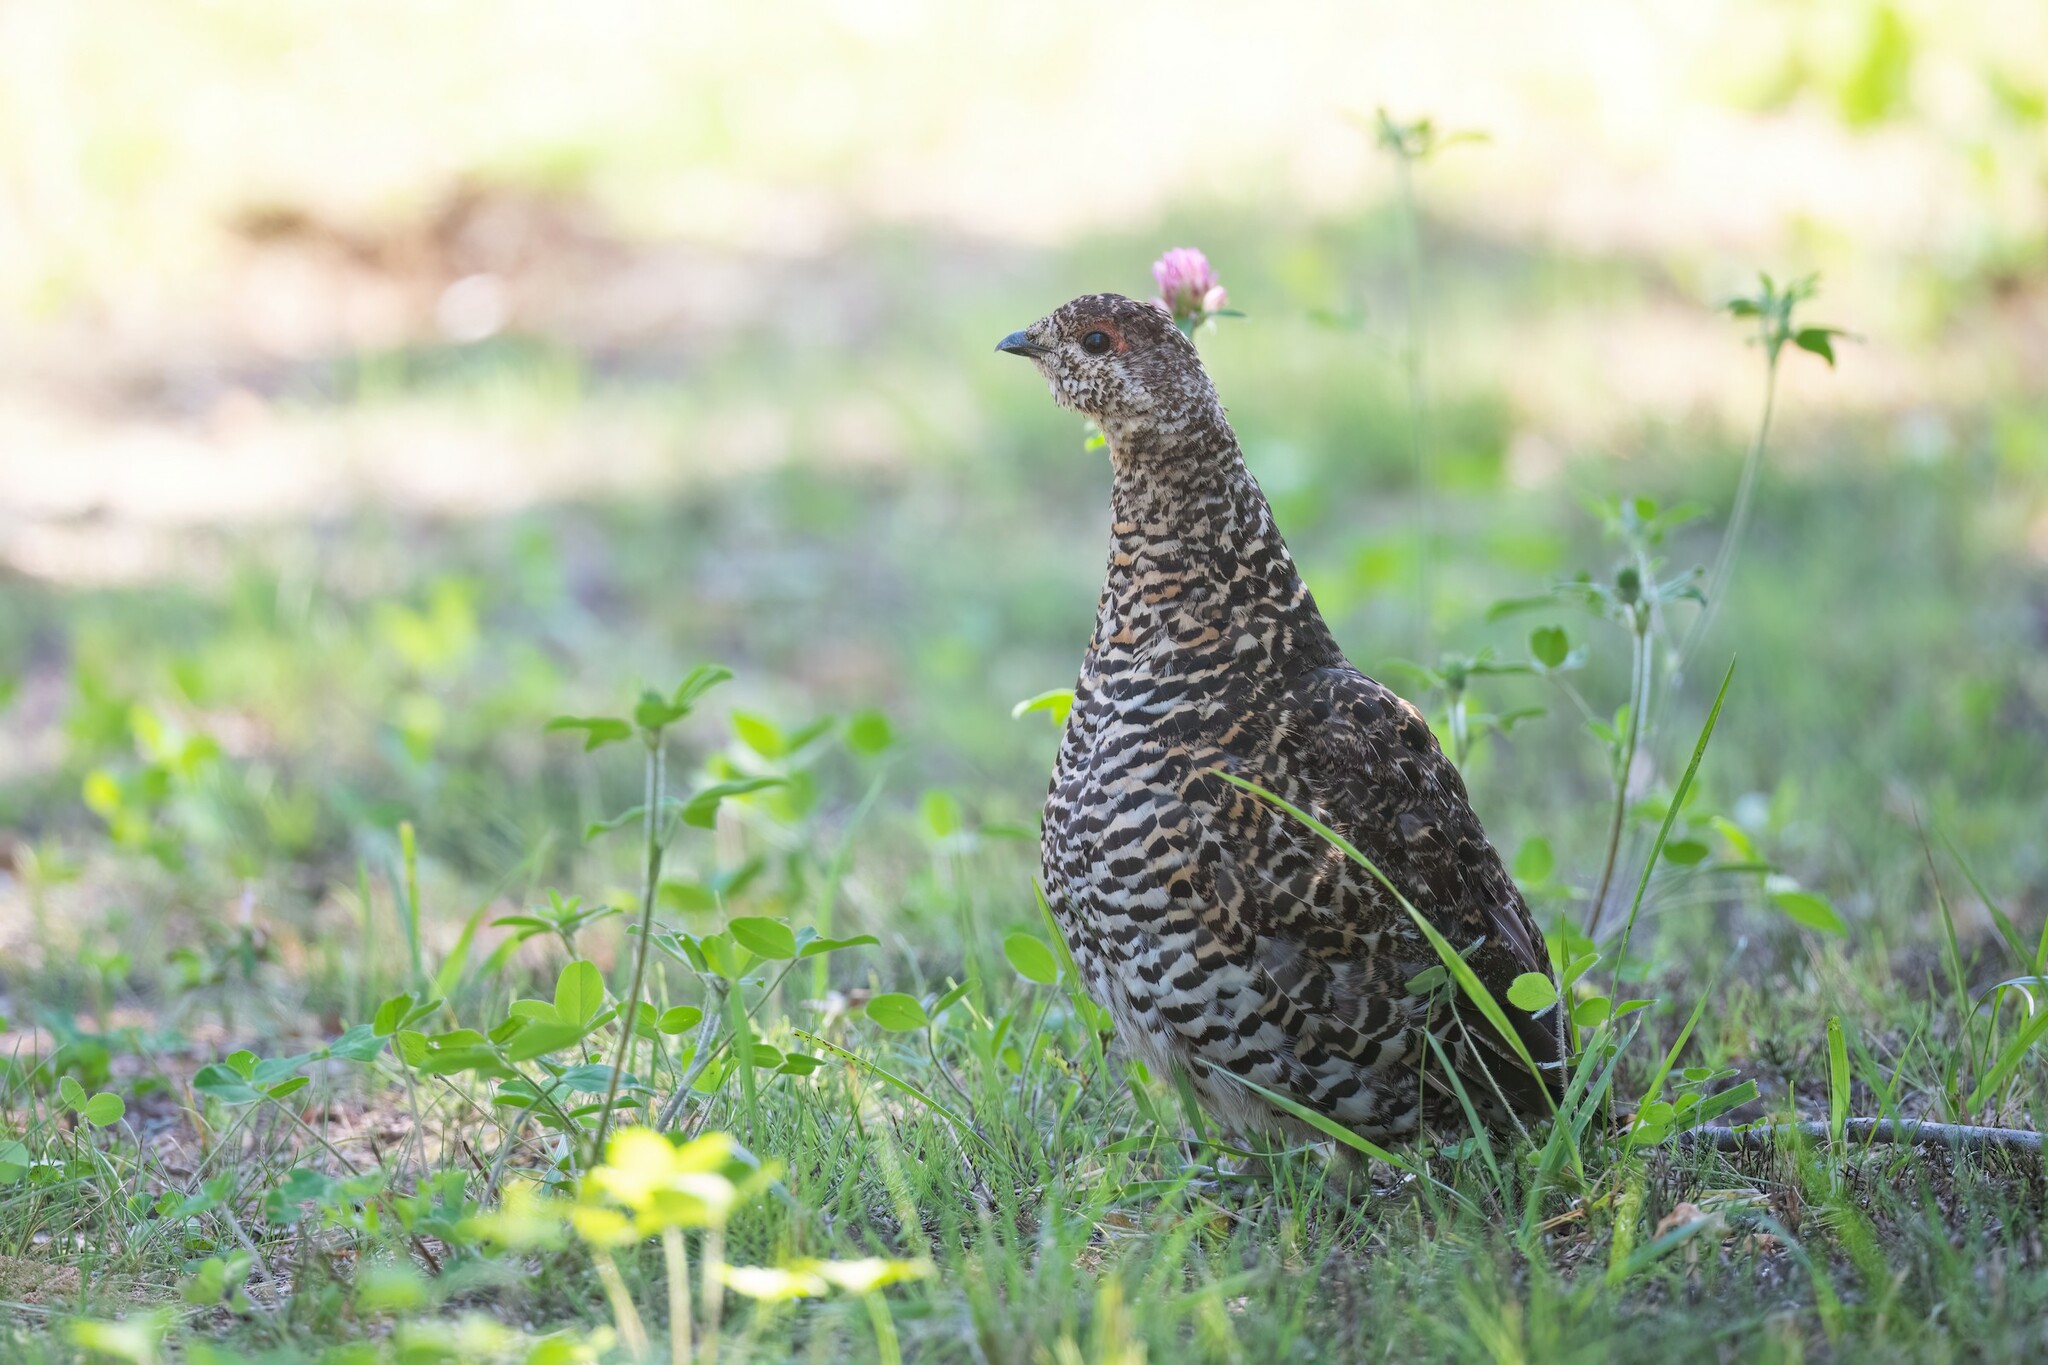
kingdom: Animalia
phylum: Chordata
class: Aves
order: Galliformes
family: Phasianidae
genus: Canachites
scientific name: Canachites canadensis
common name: Spruce grouse
